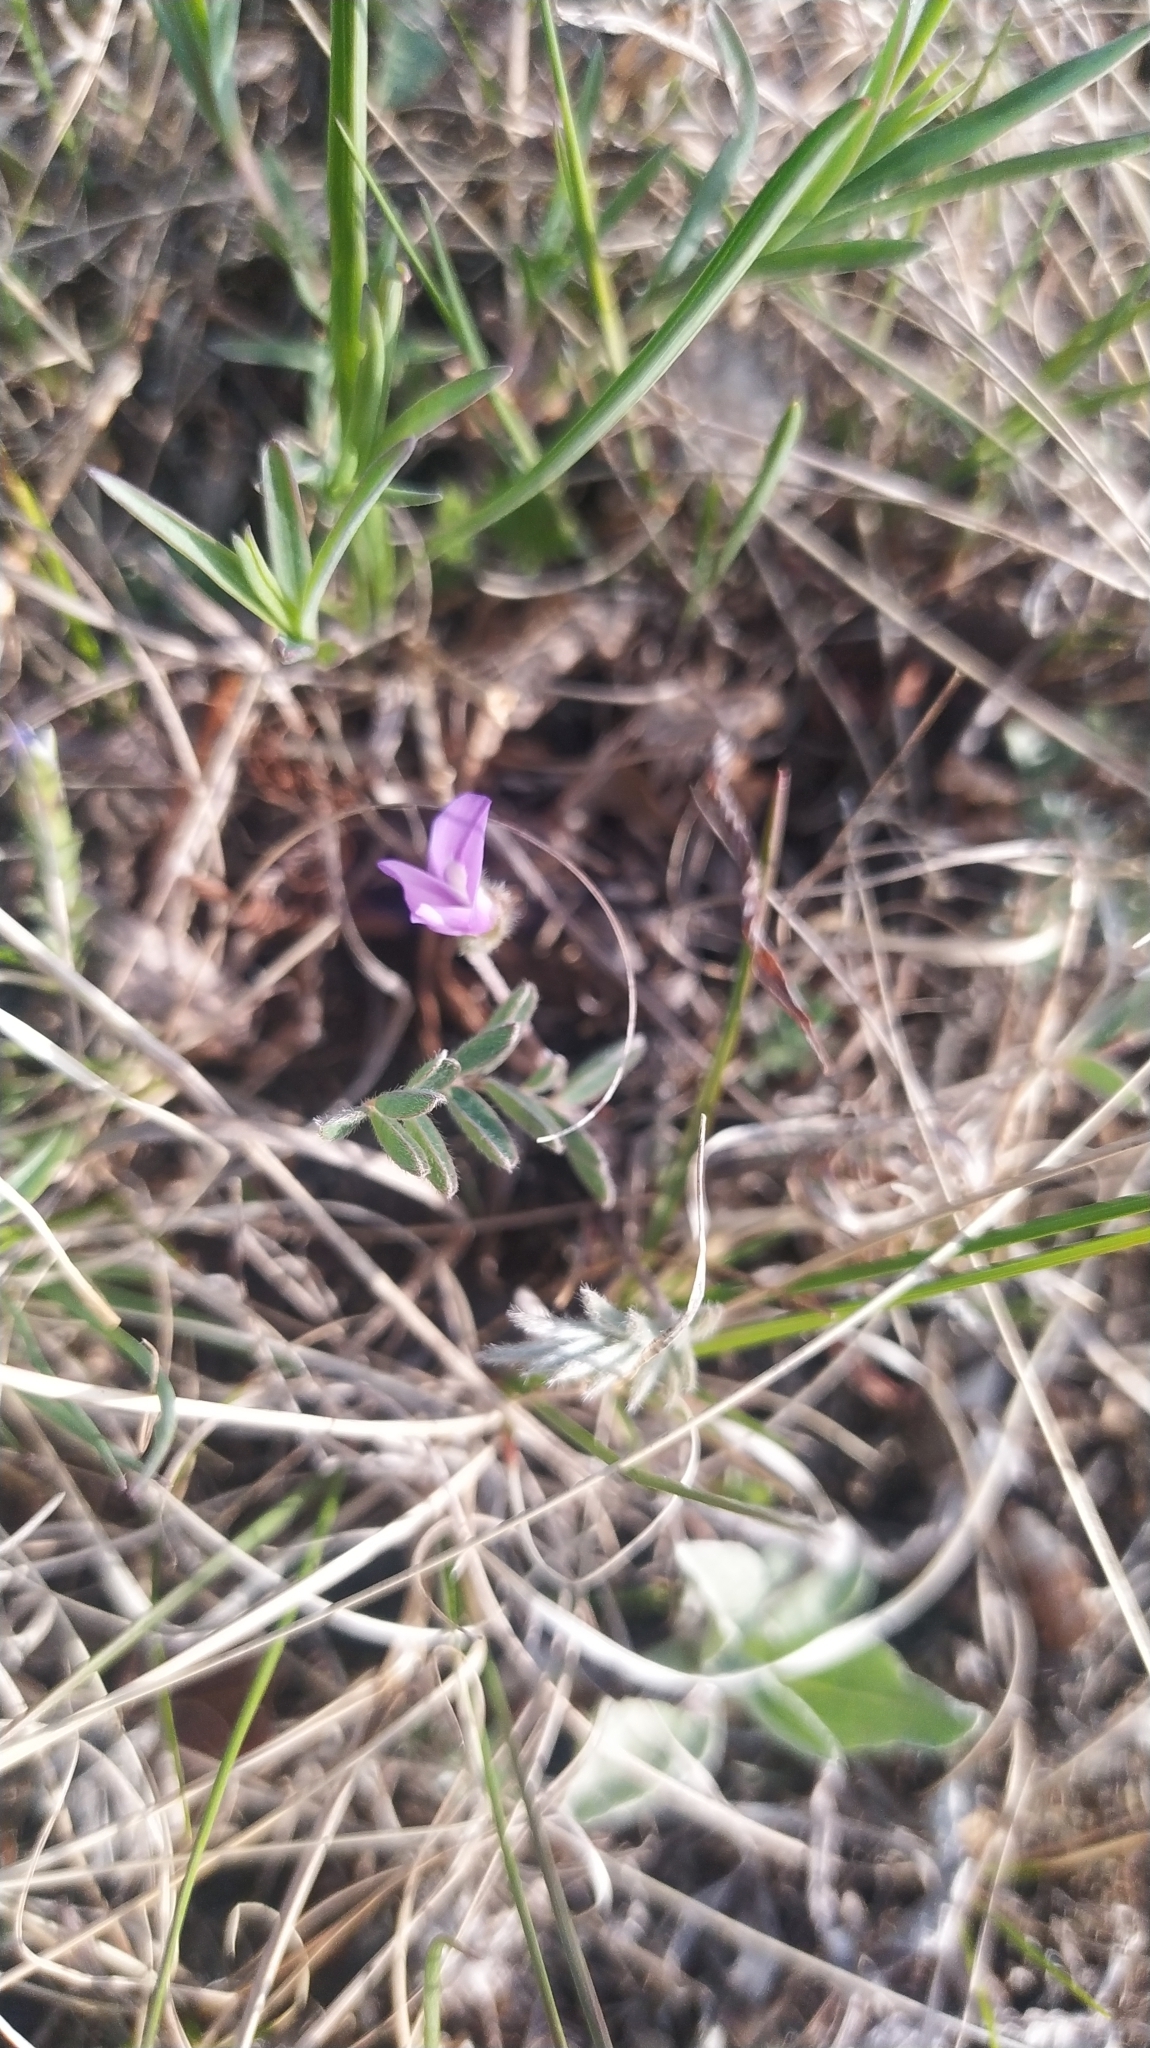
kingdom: Plantae
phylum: Tracheophyta
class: Magnoliopsida
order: Fabales
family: Fabaceae
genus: Gueldenstaedtia
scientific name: Gueldenstaedtia verna
